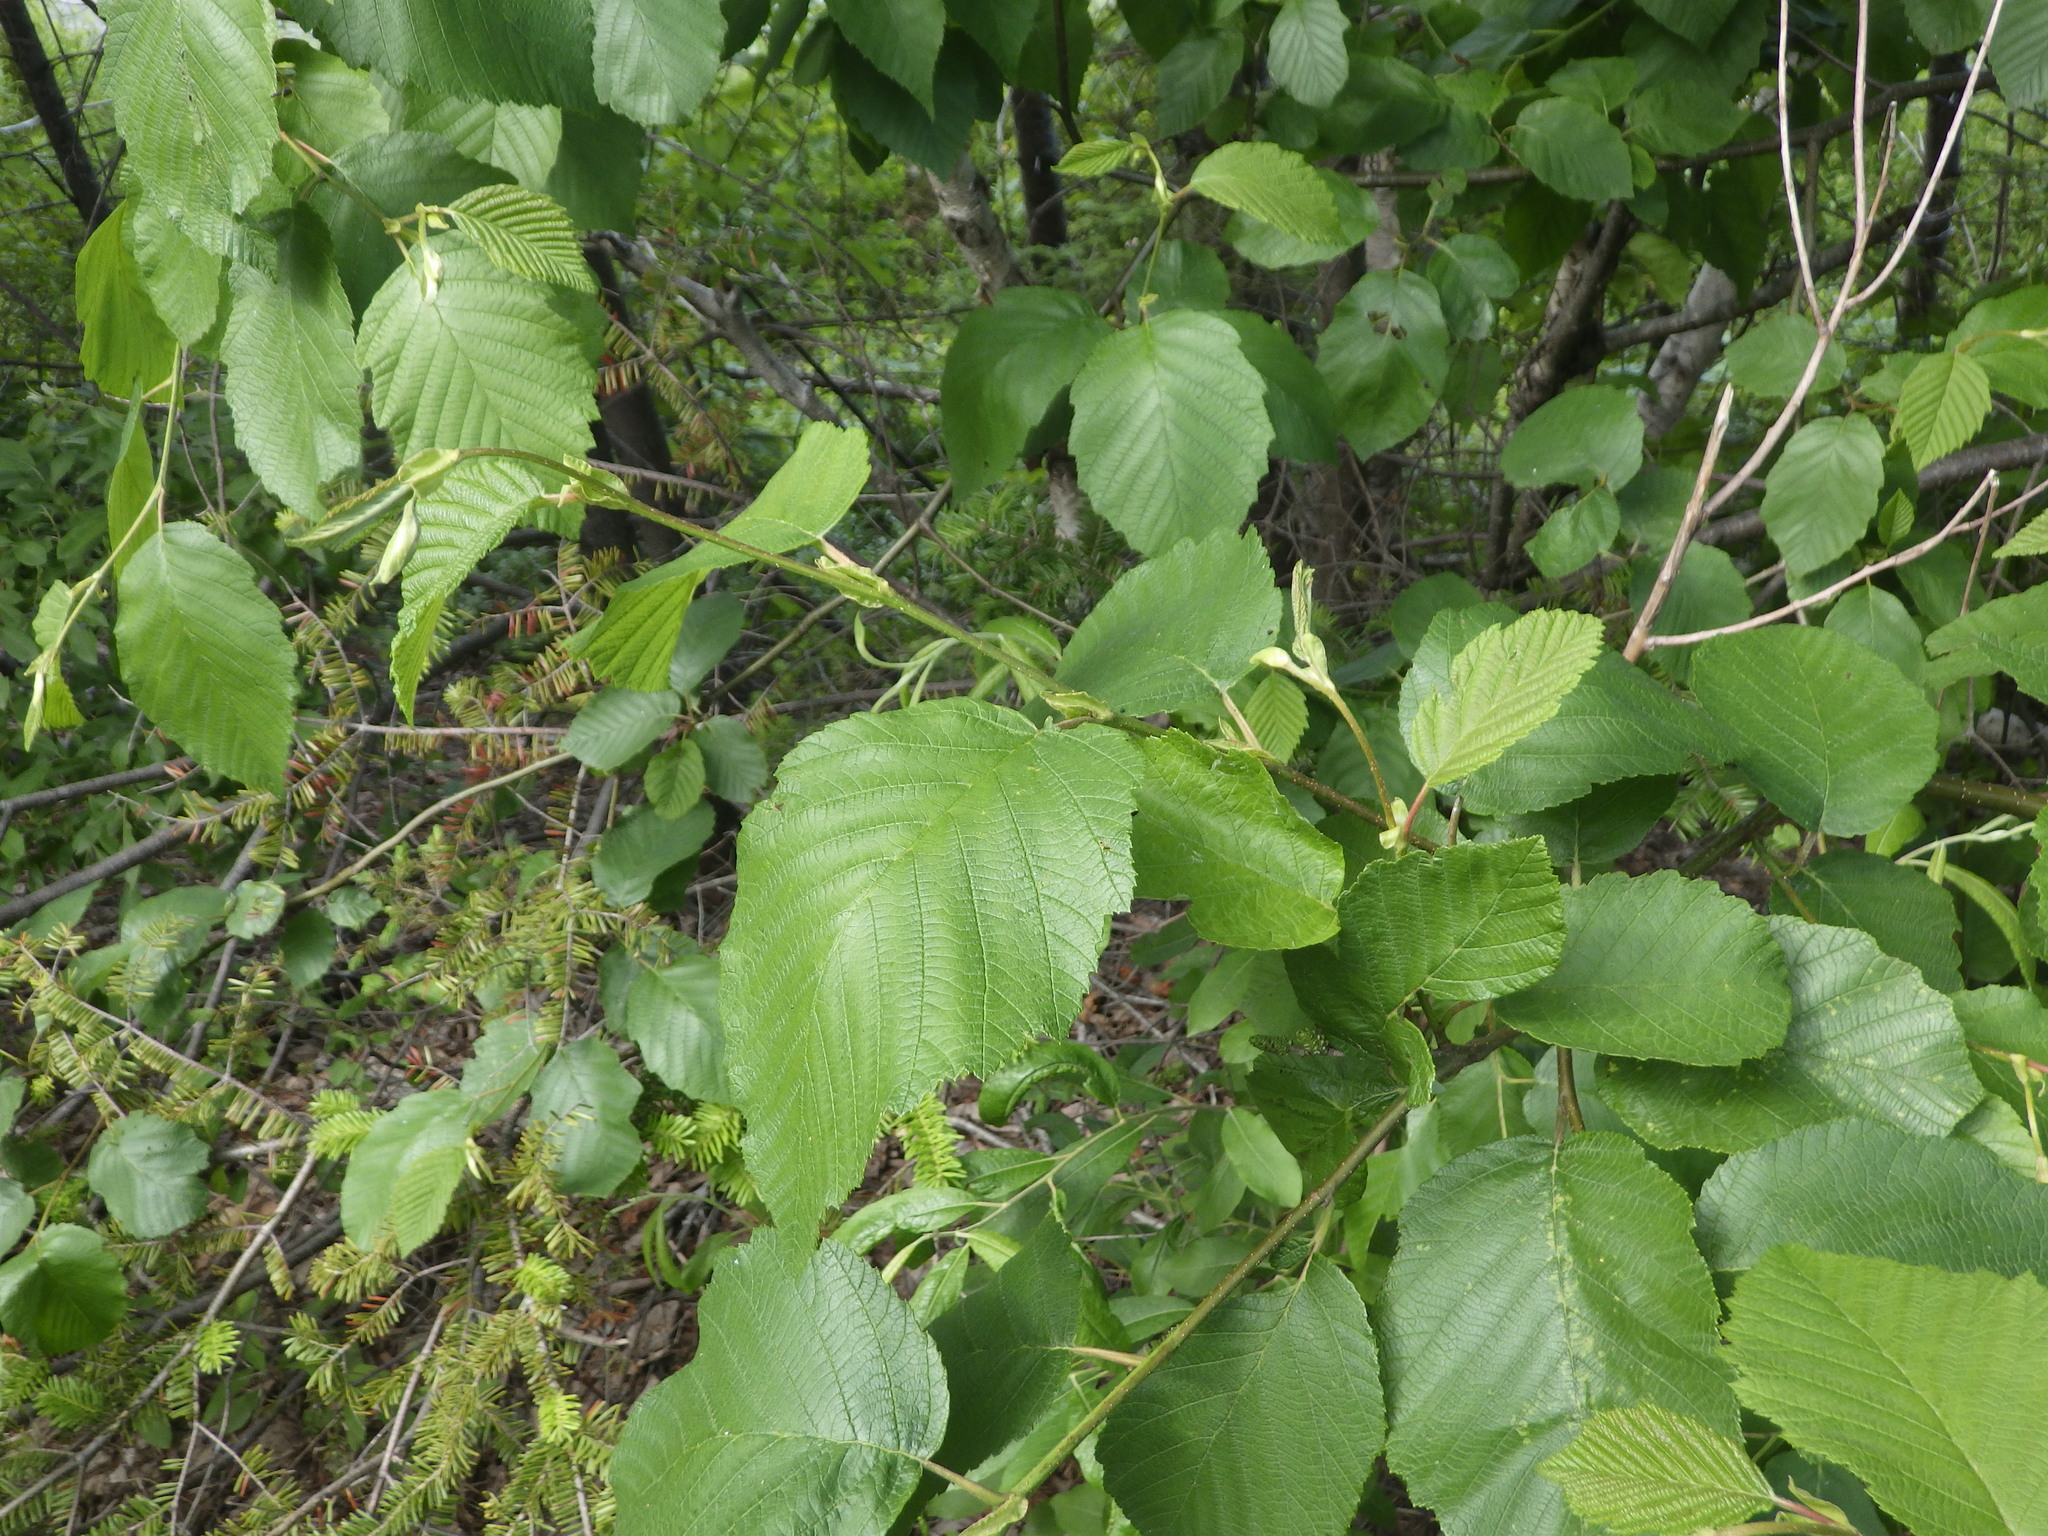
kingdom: Plantae
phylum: Tracheophyta
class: Magnoliopsida
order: Fagales
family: Betulaceae
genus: Alnus
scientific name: Alnus incana
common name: Grey alder
